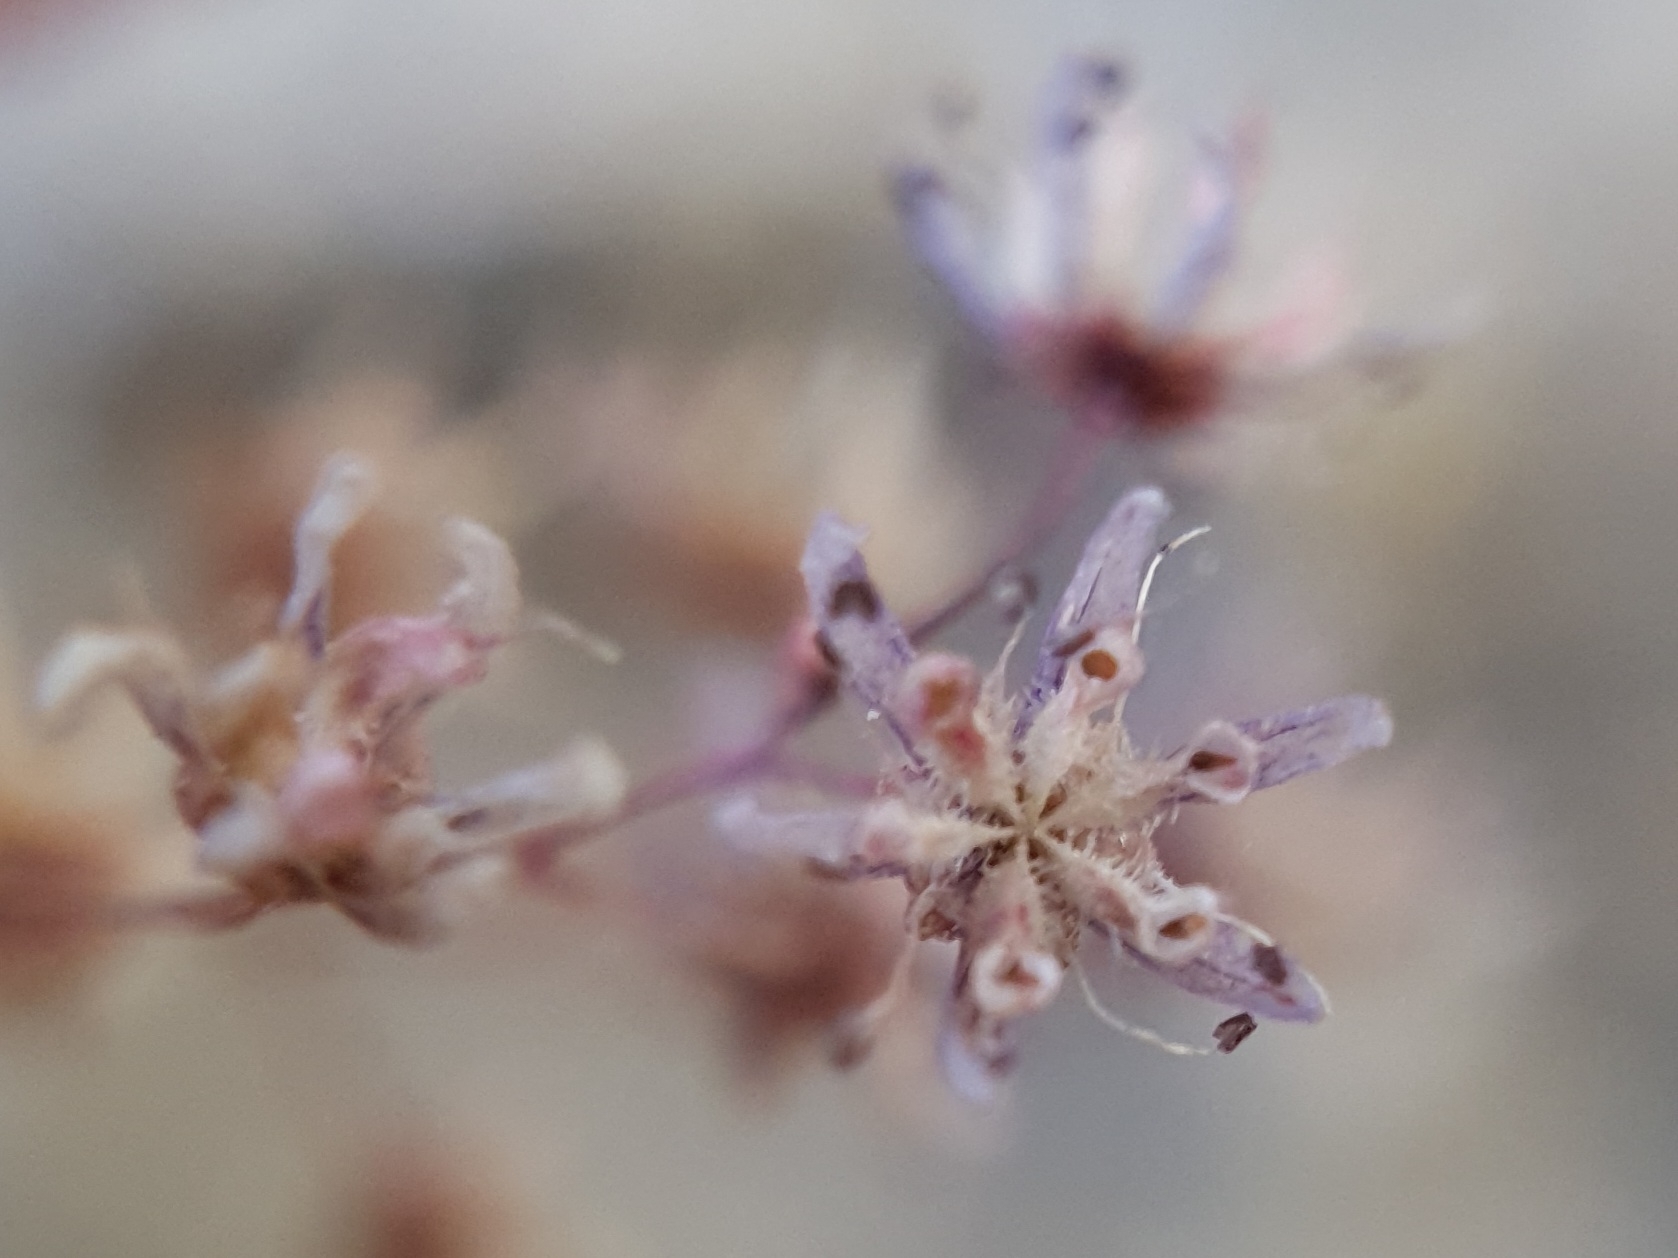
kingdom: Plantae
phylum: Tracheophyta
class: Magnoliopsida
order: Saxifragales
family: Crassulaceae
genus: Sedum
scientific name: Sedum caeruleum
